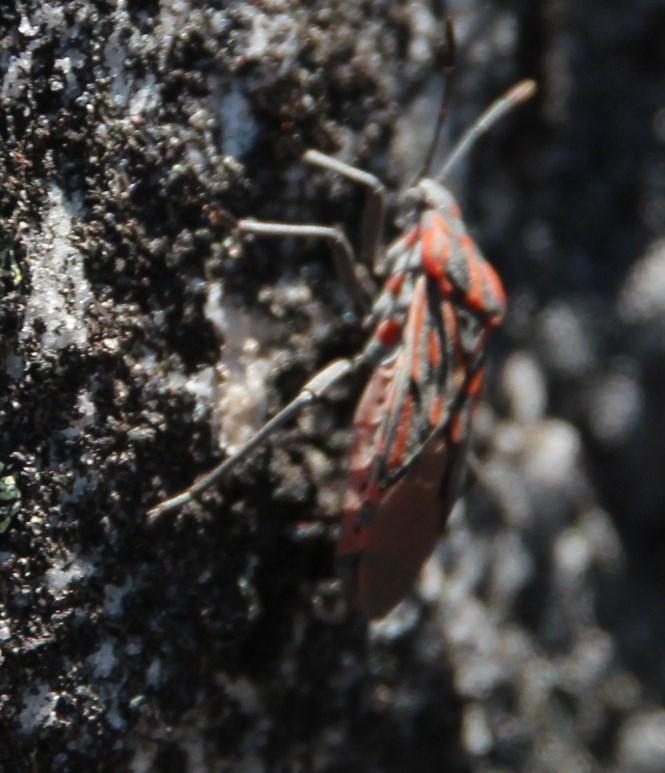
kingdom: Animalia
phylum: Arthropoda
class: Insecta
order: Hemiptera
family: Lygaeidae
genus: Spilostethus
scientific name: Spilostethus crudelis
